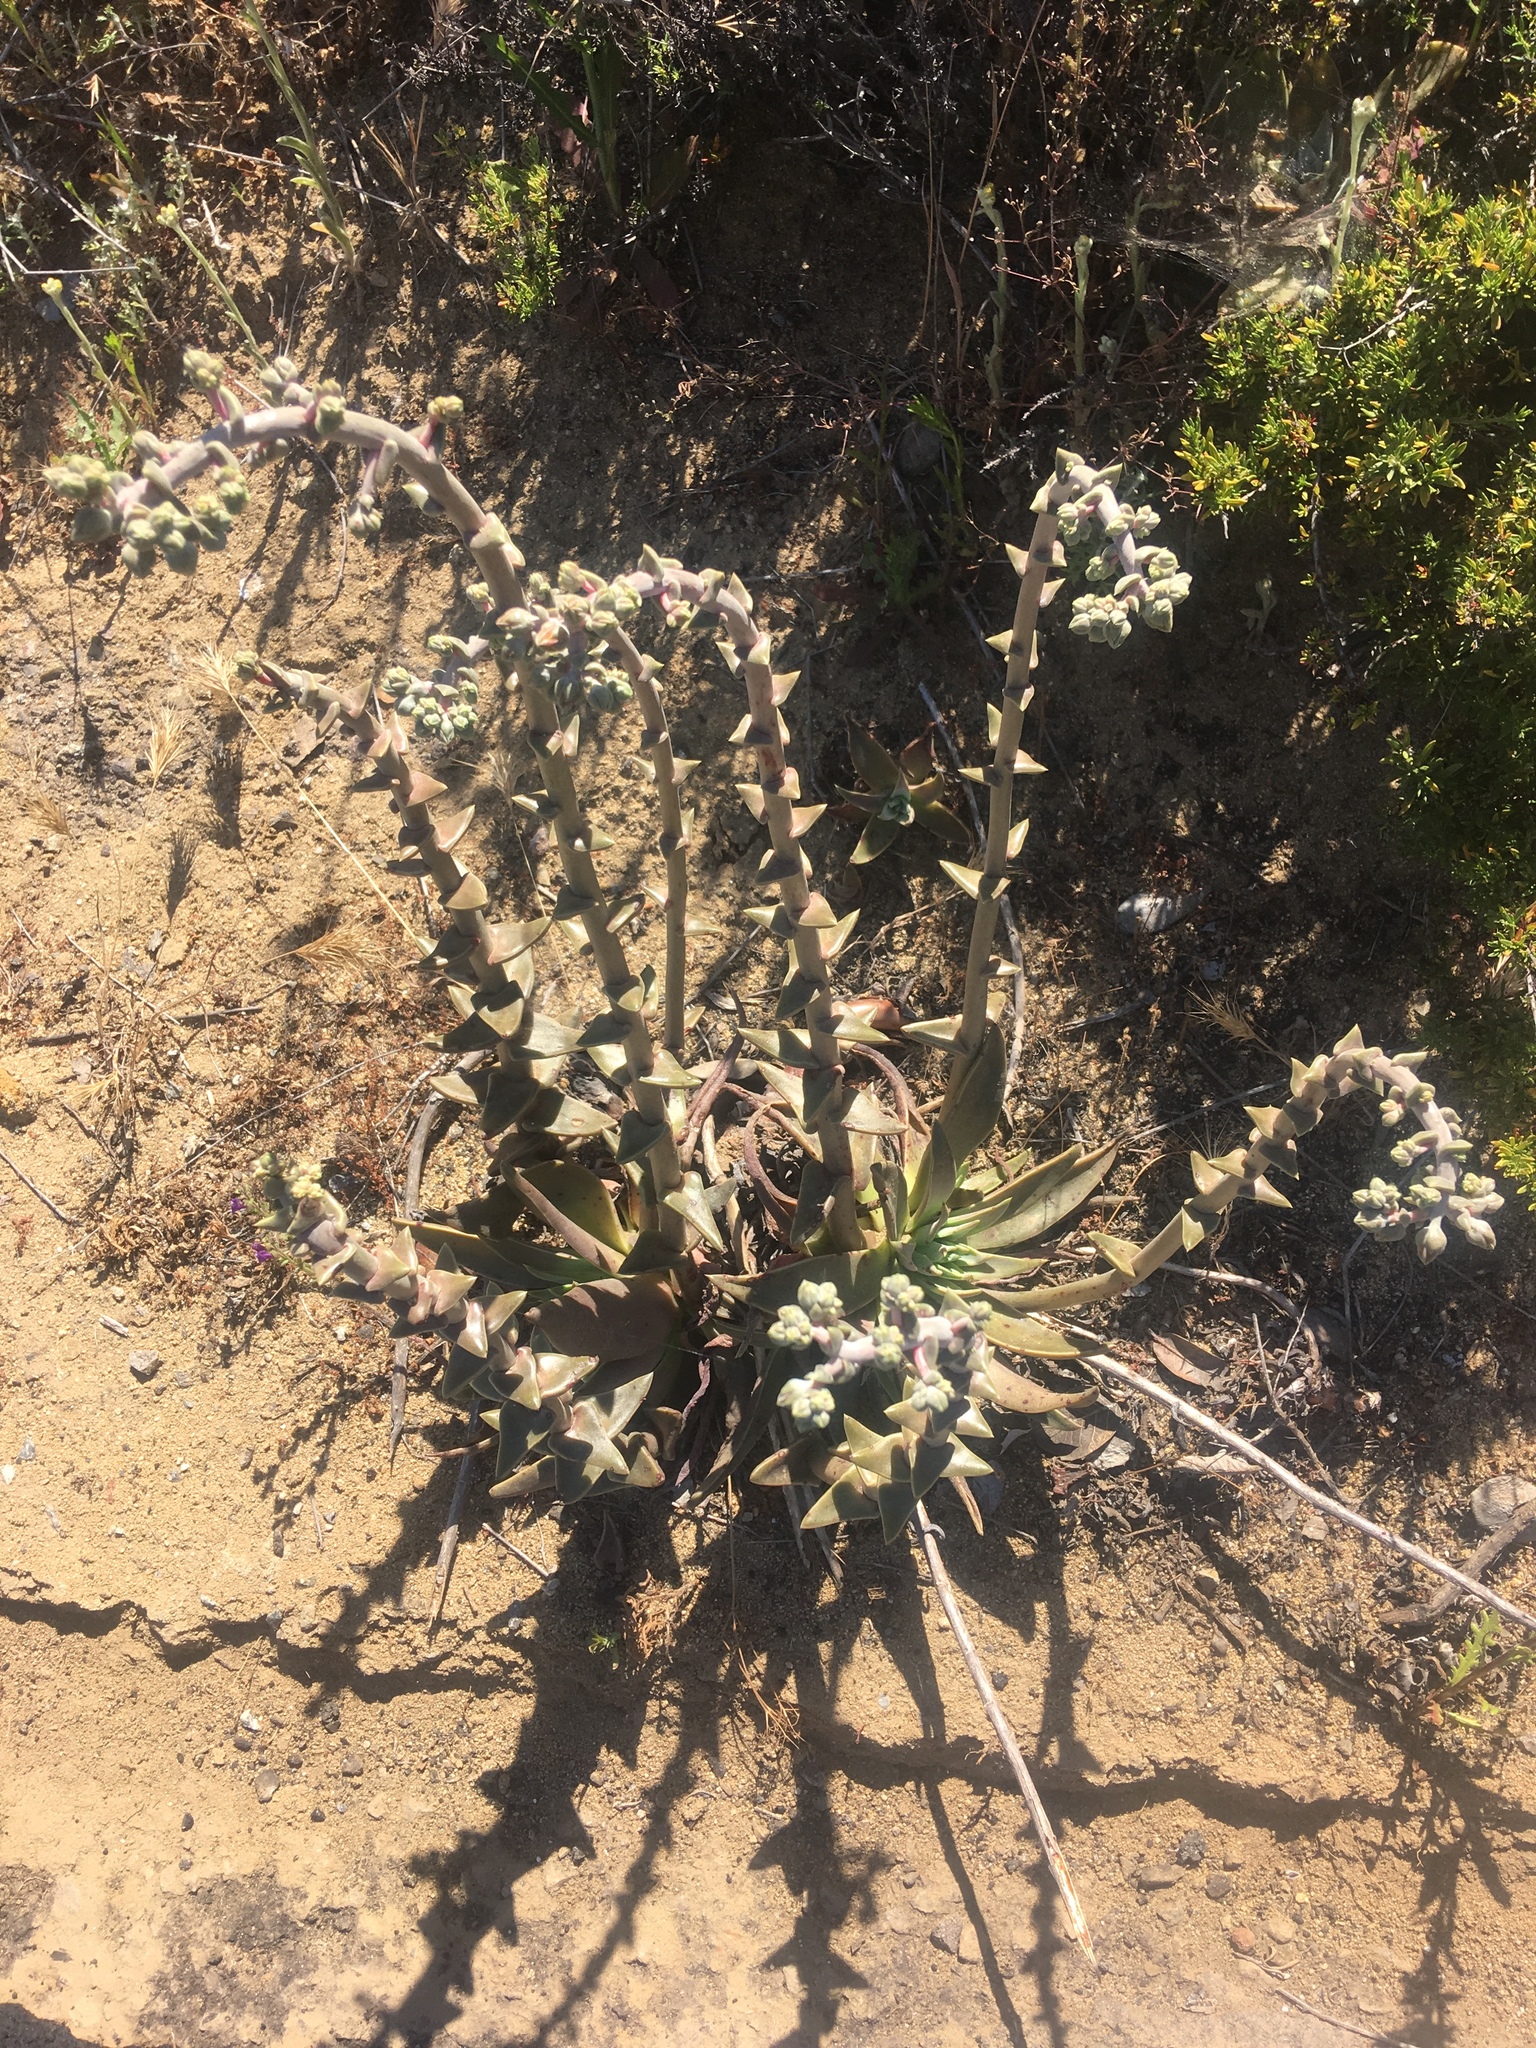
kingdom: Plantae
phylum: Tracheophyta
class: Magnoliopsida
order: Saxifragales
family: Crassulaceae
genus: Dudleya
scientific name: Dudleya lanceolata
